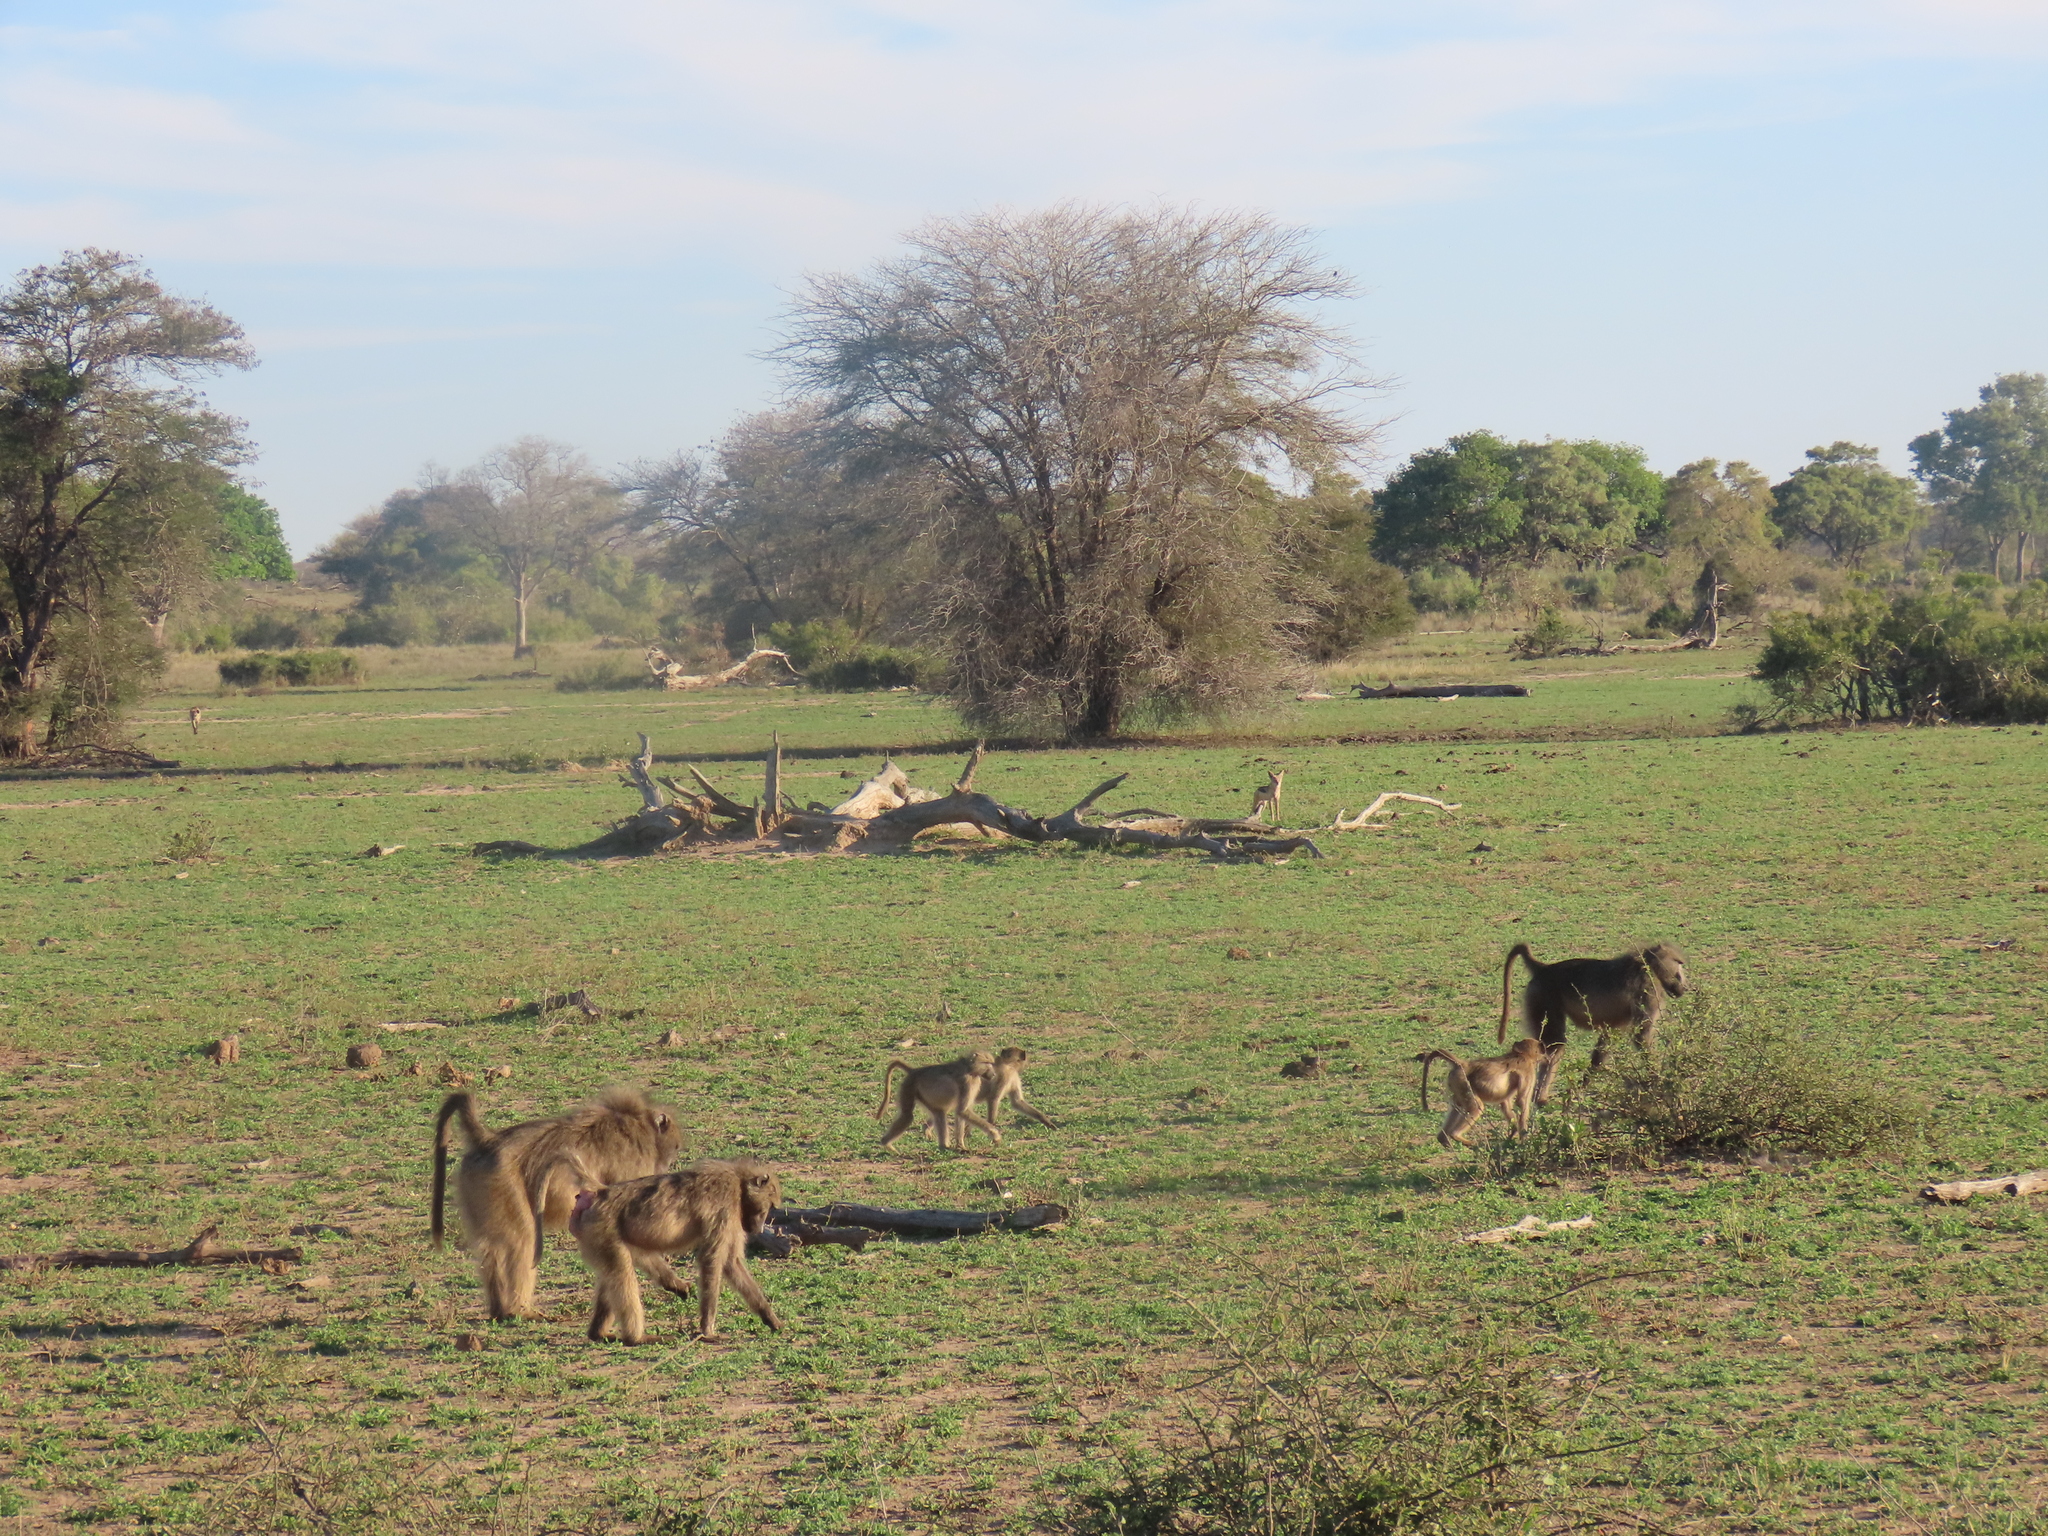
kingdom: Animalia
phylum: Chordata
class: Mammalia
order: Primates
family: Cercopithecidae
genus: Papio
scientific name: Papio ursinus
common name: Chacma baboon
